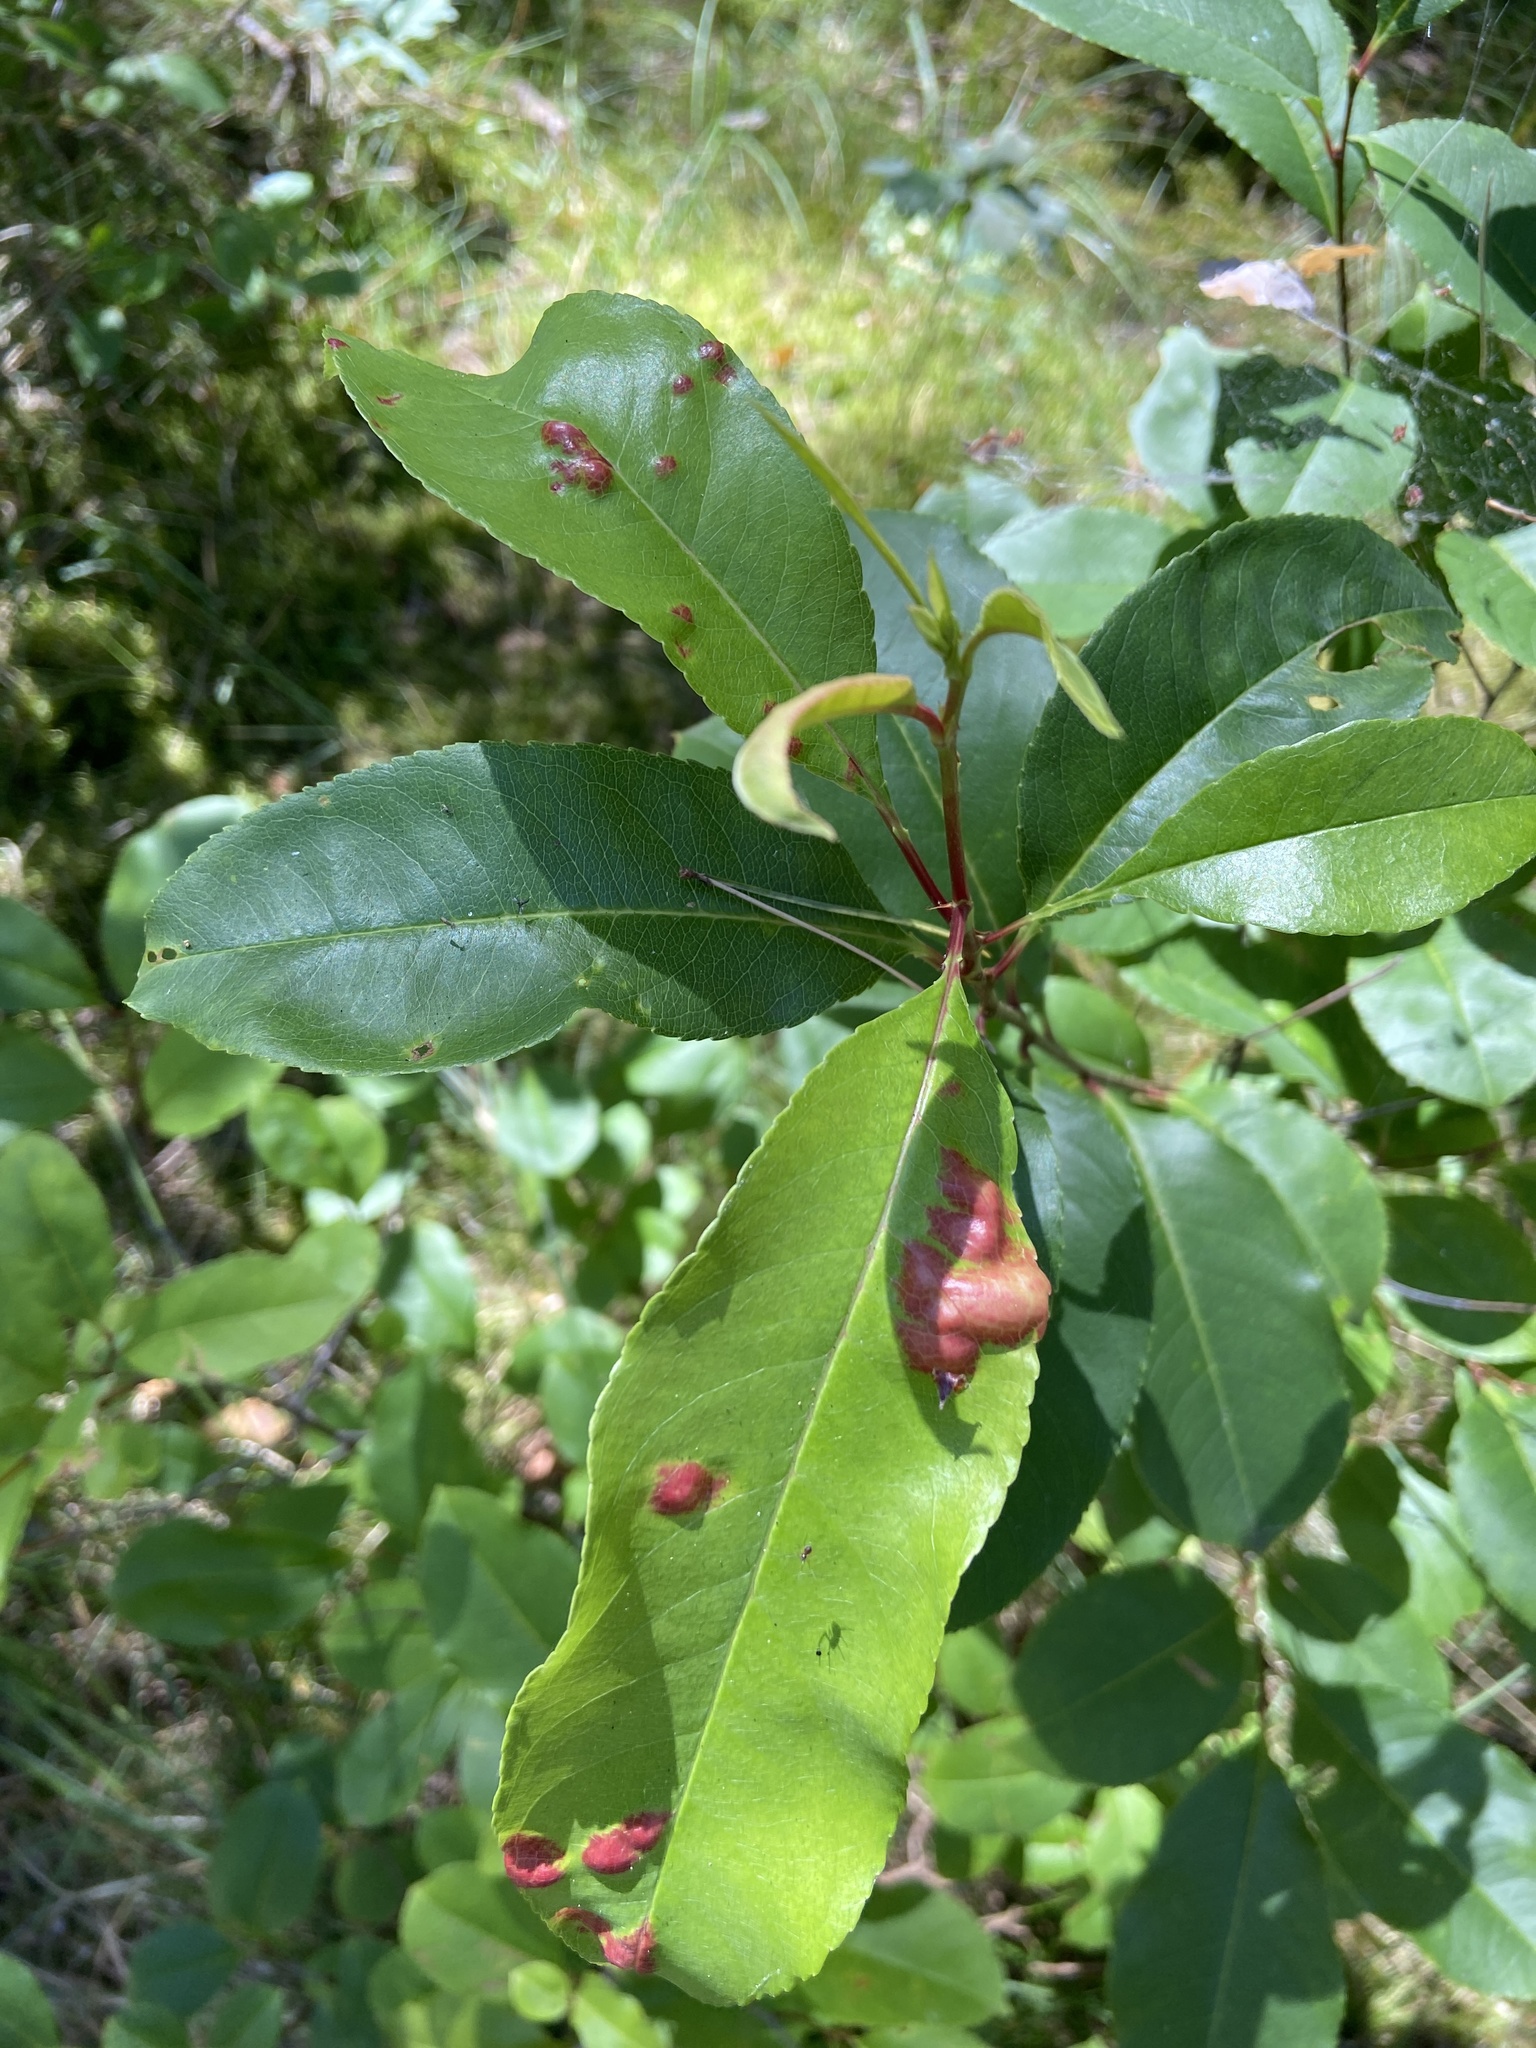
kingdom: Fungi
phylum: Ascomycota
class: Taphrinomycetes
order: Taphrinales
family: Taphrinaceae
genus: Taphrina
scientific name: Taphrina deformans
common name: Peach leaf curl
